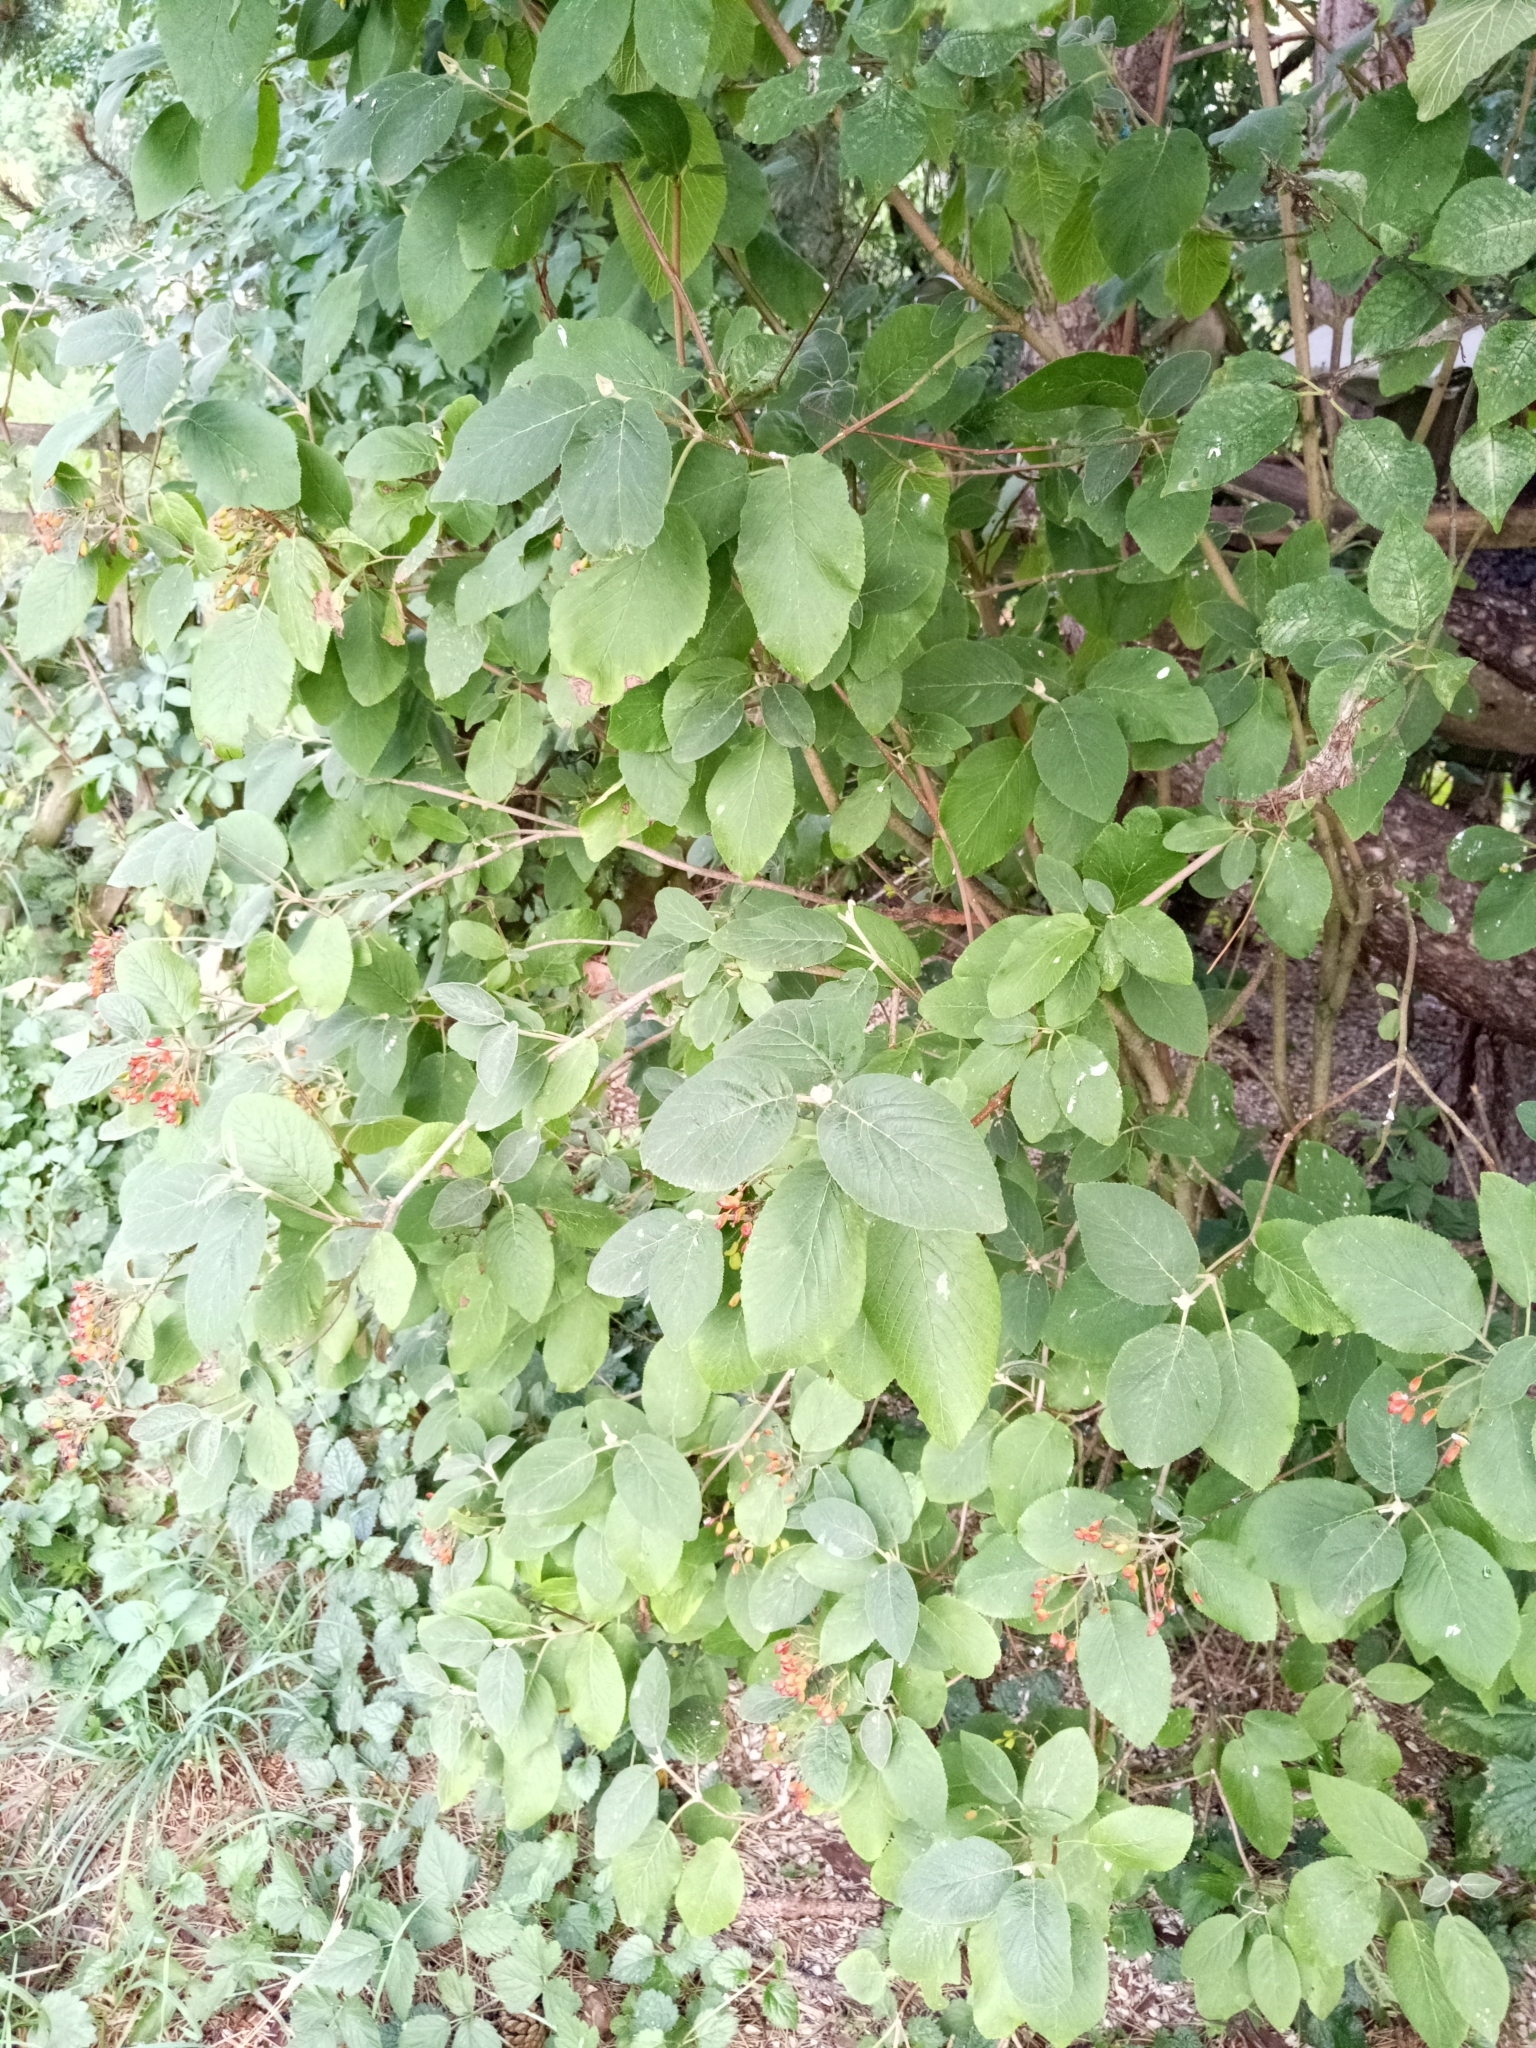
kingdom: Plantae
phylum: Tracheophyta
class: Magnoliopsida
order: Dipsacales
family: Viburnaceae
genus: Viburnum
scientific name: Viburnum lantana
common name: Wayfaring tree
